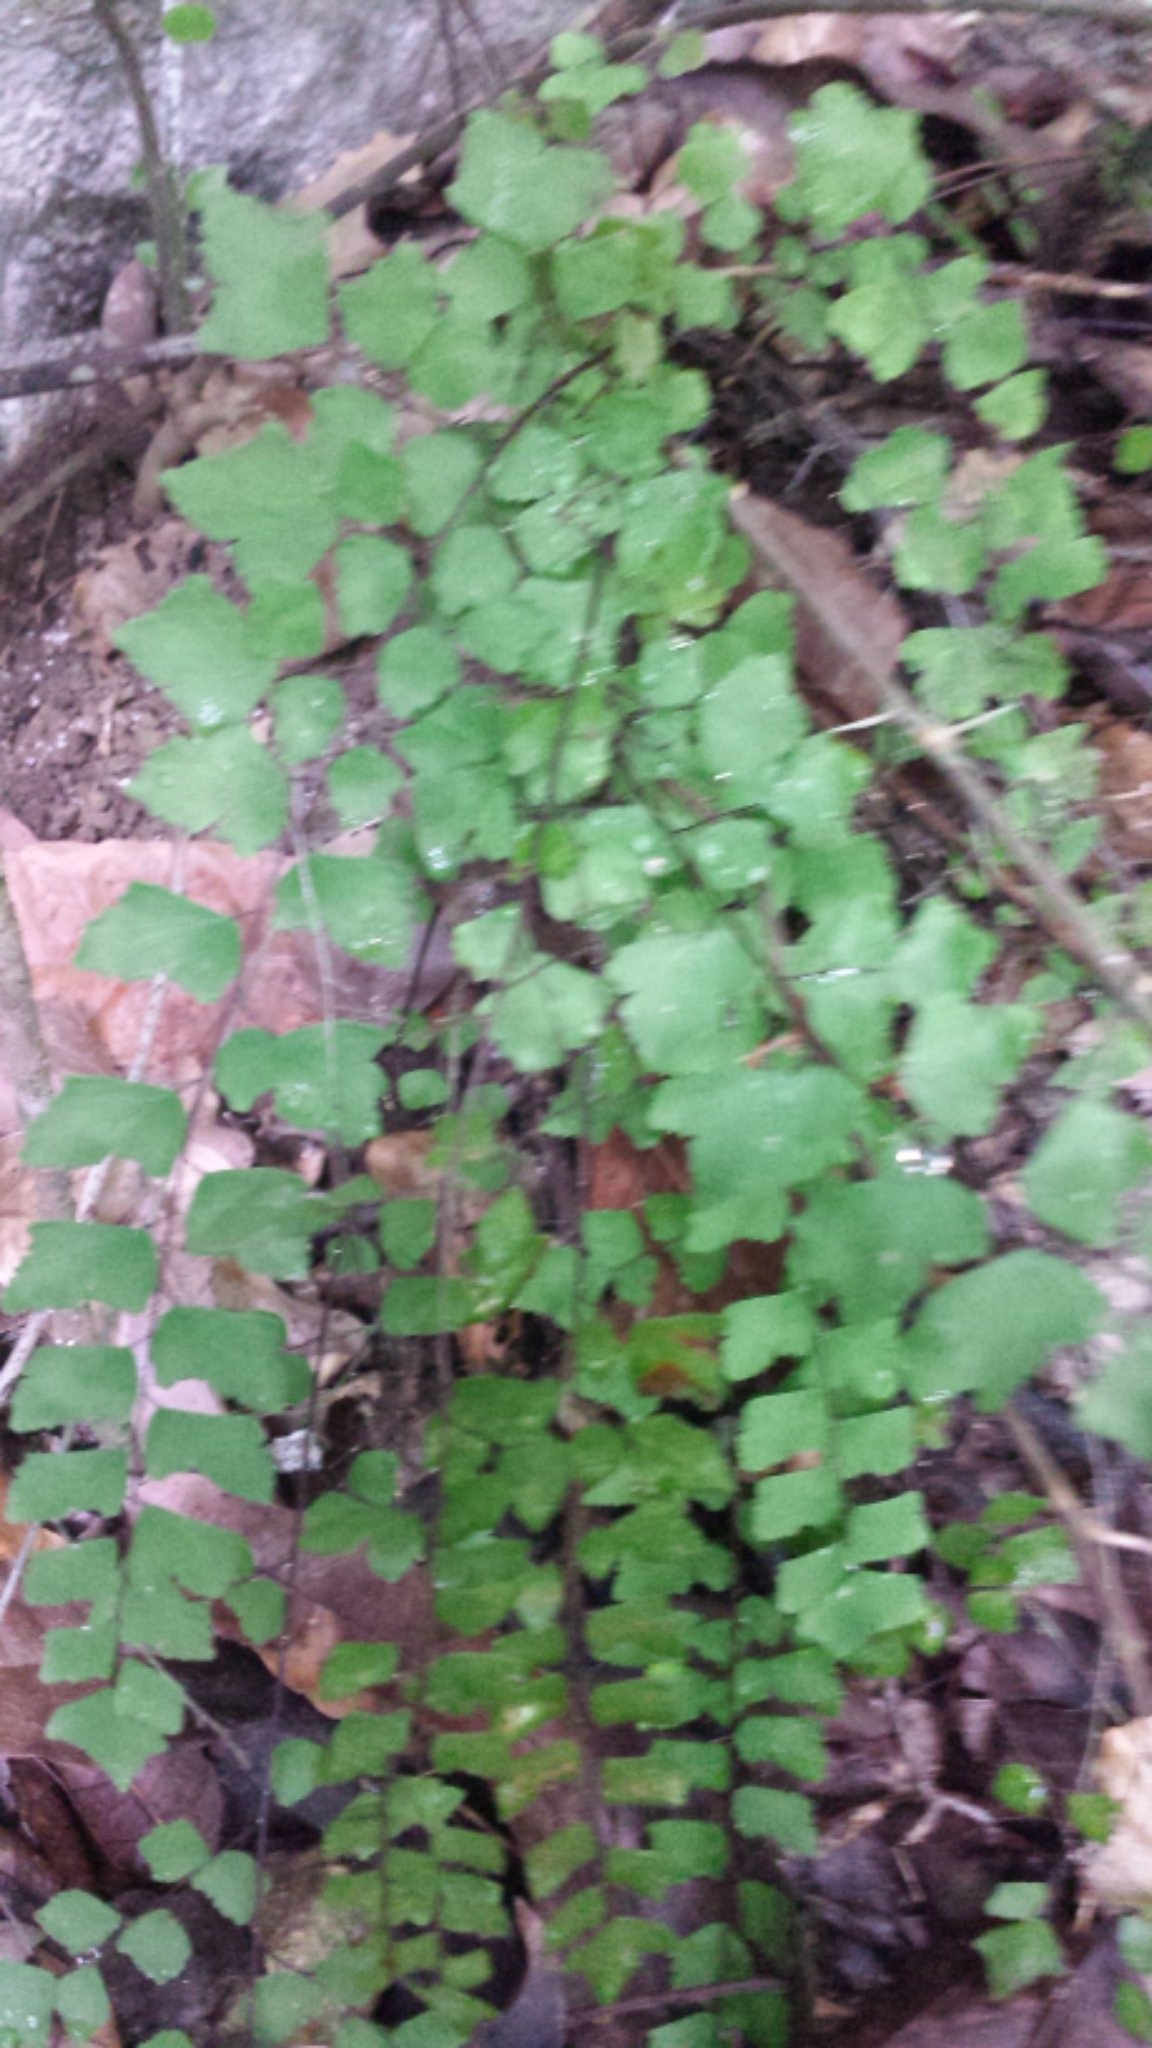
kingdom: Plantae
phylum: Tracheophyta
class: Polypodiopsida
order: Polypodiales
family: Pteridaceae
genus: Adiantum
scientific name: Adiantum deltoideum
